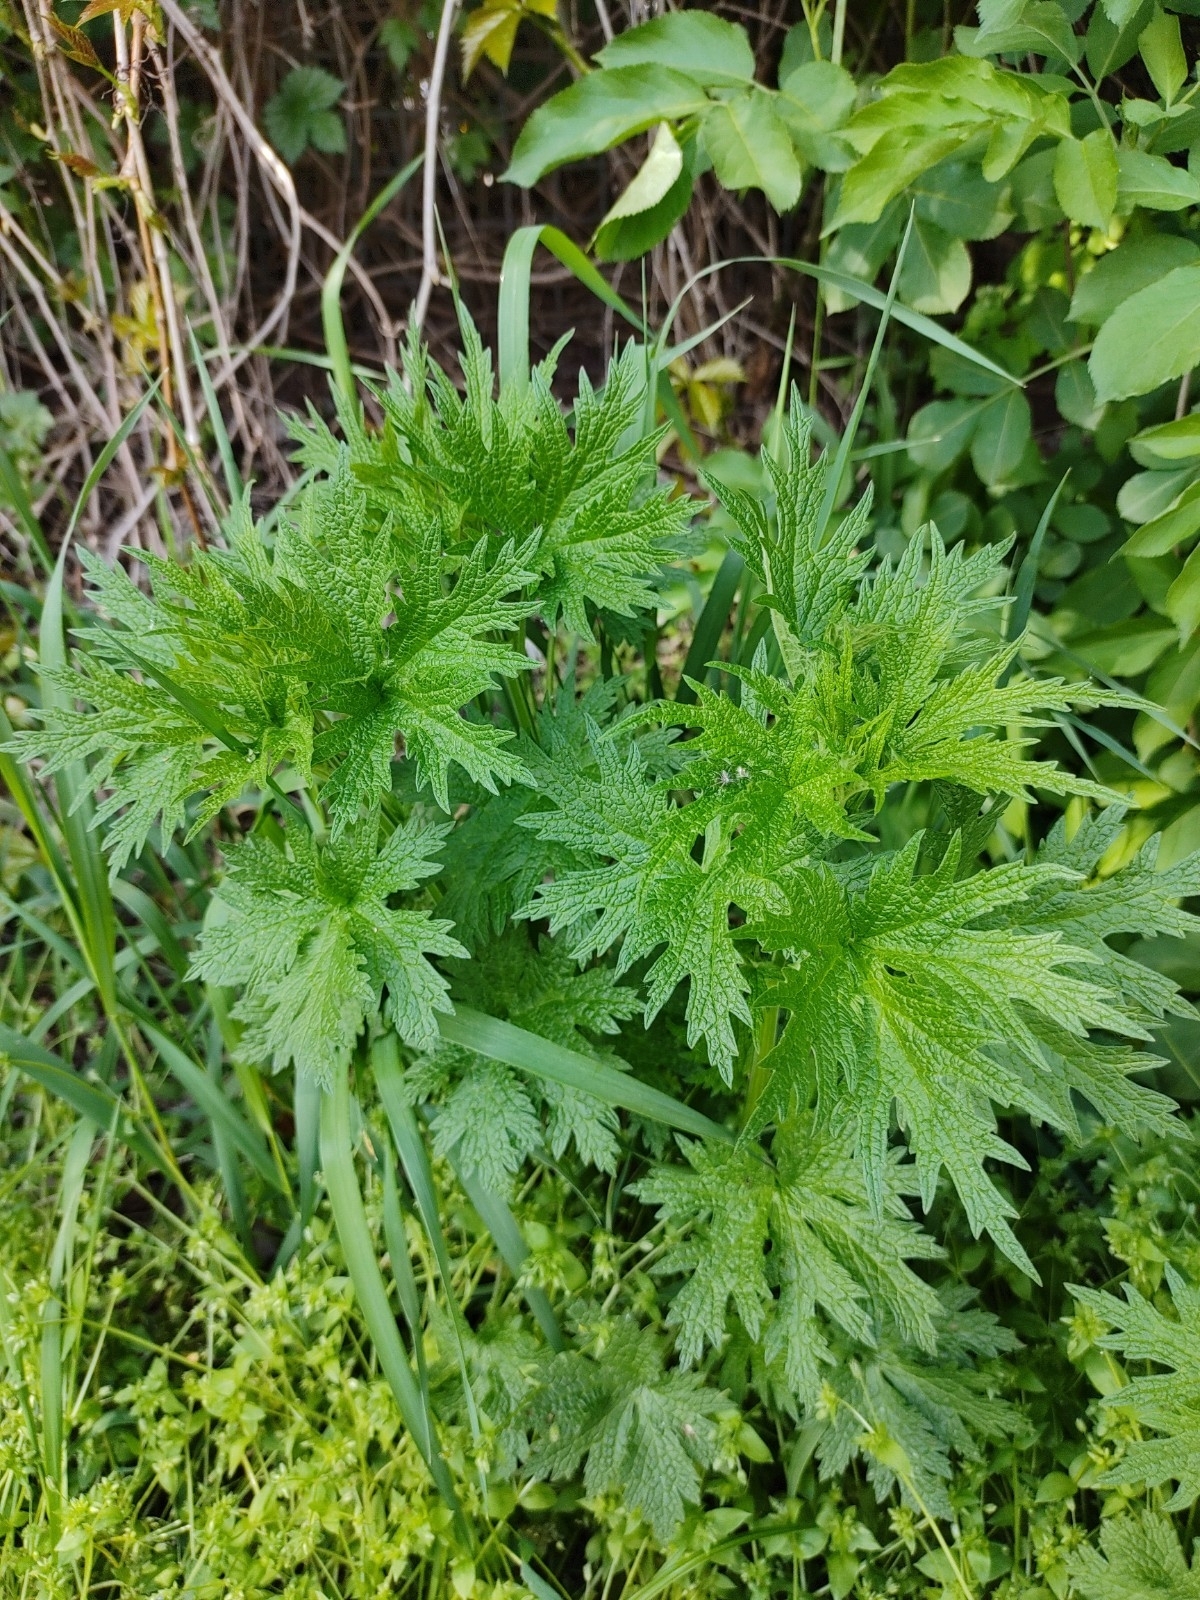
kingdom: Plantae
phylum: Tracheophyta
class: Magnoliopsida
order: Lamiales
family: Lamiaceae
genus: Leonurus
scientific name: Leonurus cardiaca
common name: Motherwort
